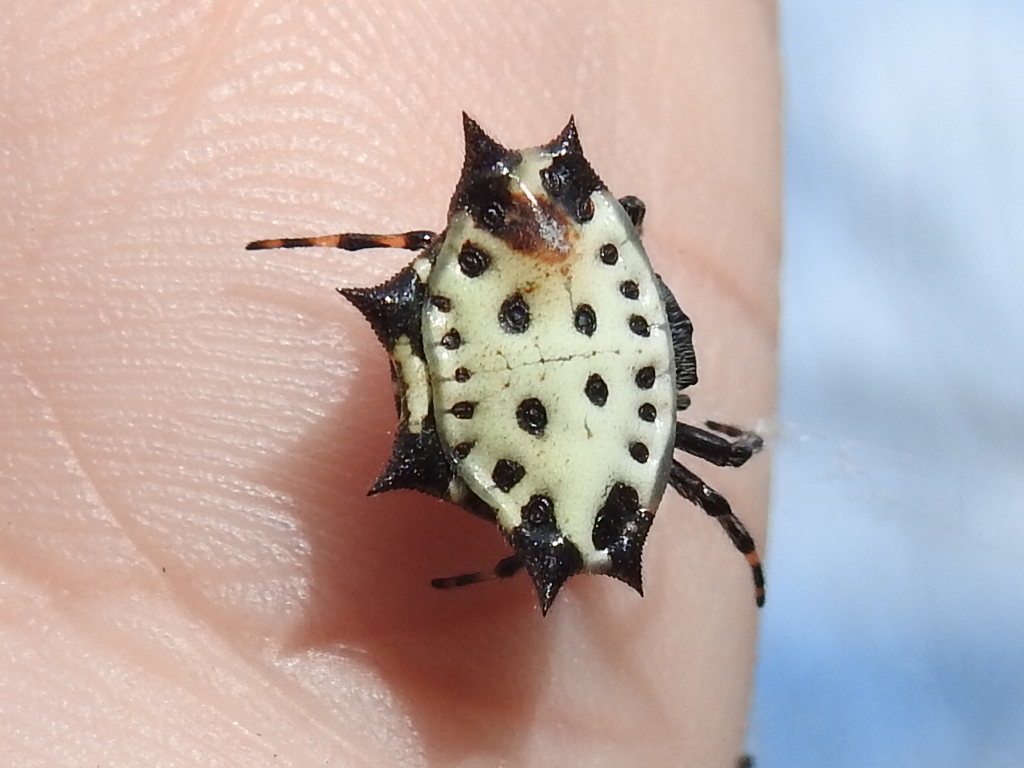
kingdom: Animalia
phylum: Arthropoda
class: Arachnida
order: Araneae
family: Araneidae
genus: Gasteracantha
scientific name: Gasteracantha cancriformis
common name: Orb weavers
